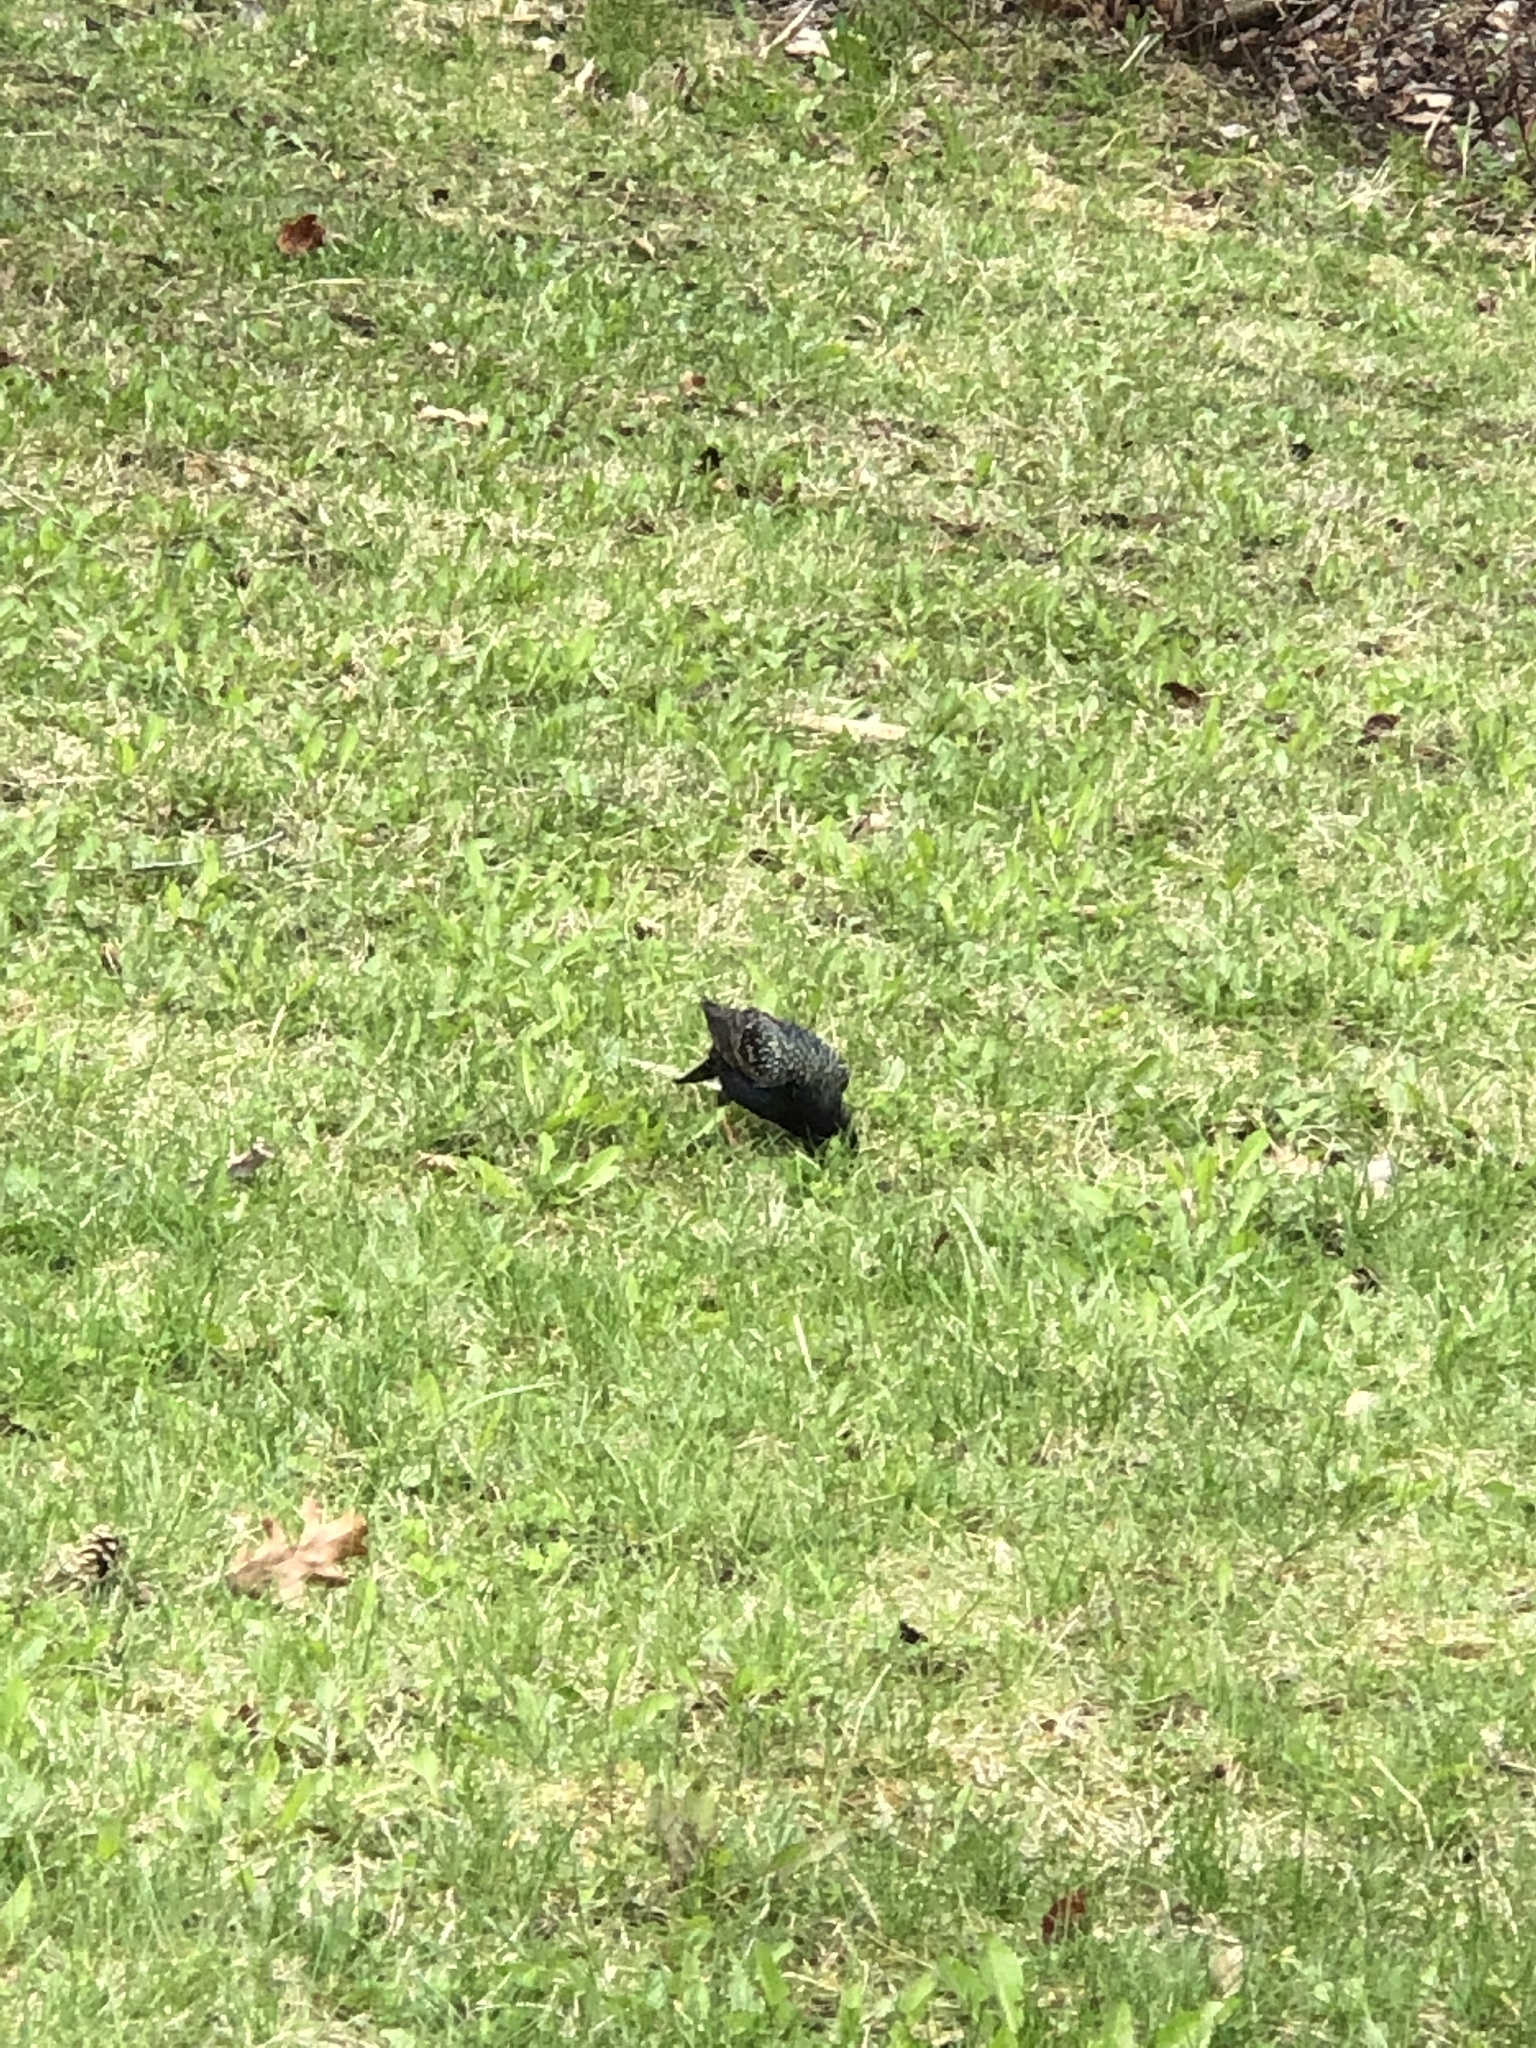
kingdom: Animalia
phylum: Chordata
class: Aves
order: Passeriformes
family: Sturnidae
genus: Sturnus
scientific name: Sturnus vulgaris
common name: Common starling
